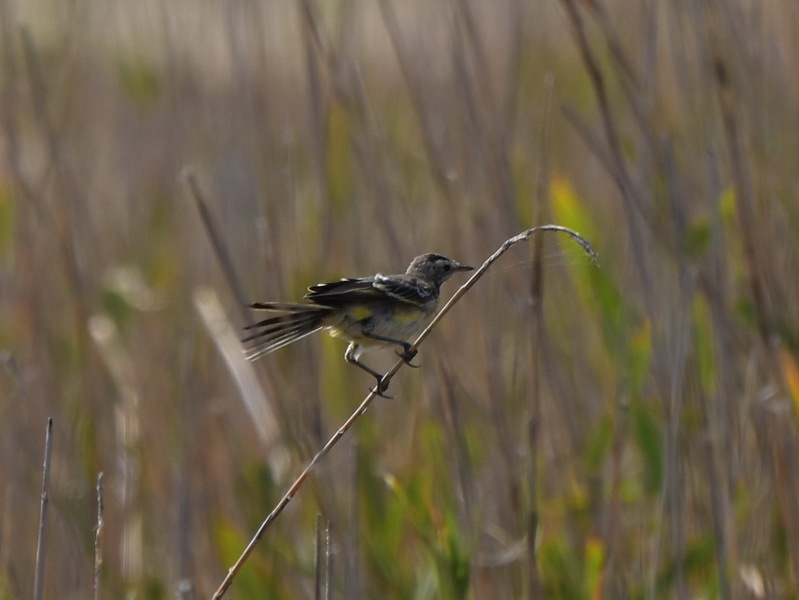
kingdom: Animalia
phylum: Chordata
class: Aves
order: Passeriformes
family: Motacillidae
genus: Motacilla
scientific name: Motacilla flava
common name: Western yellow wagtail
